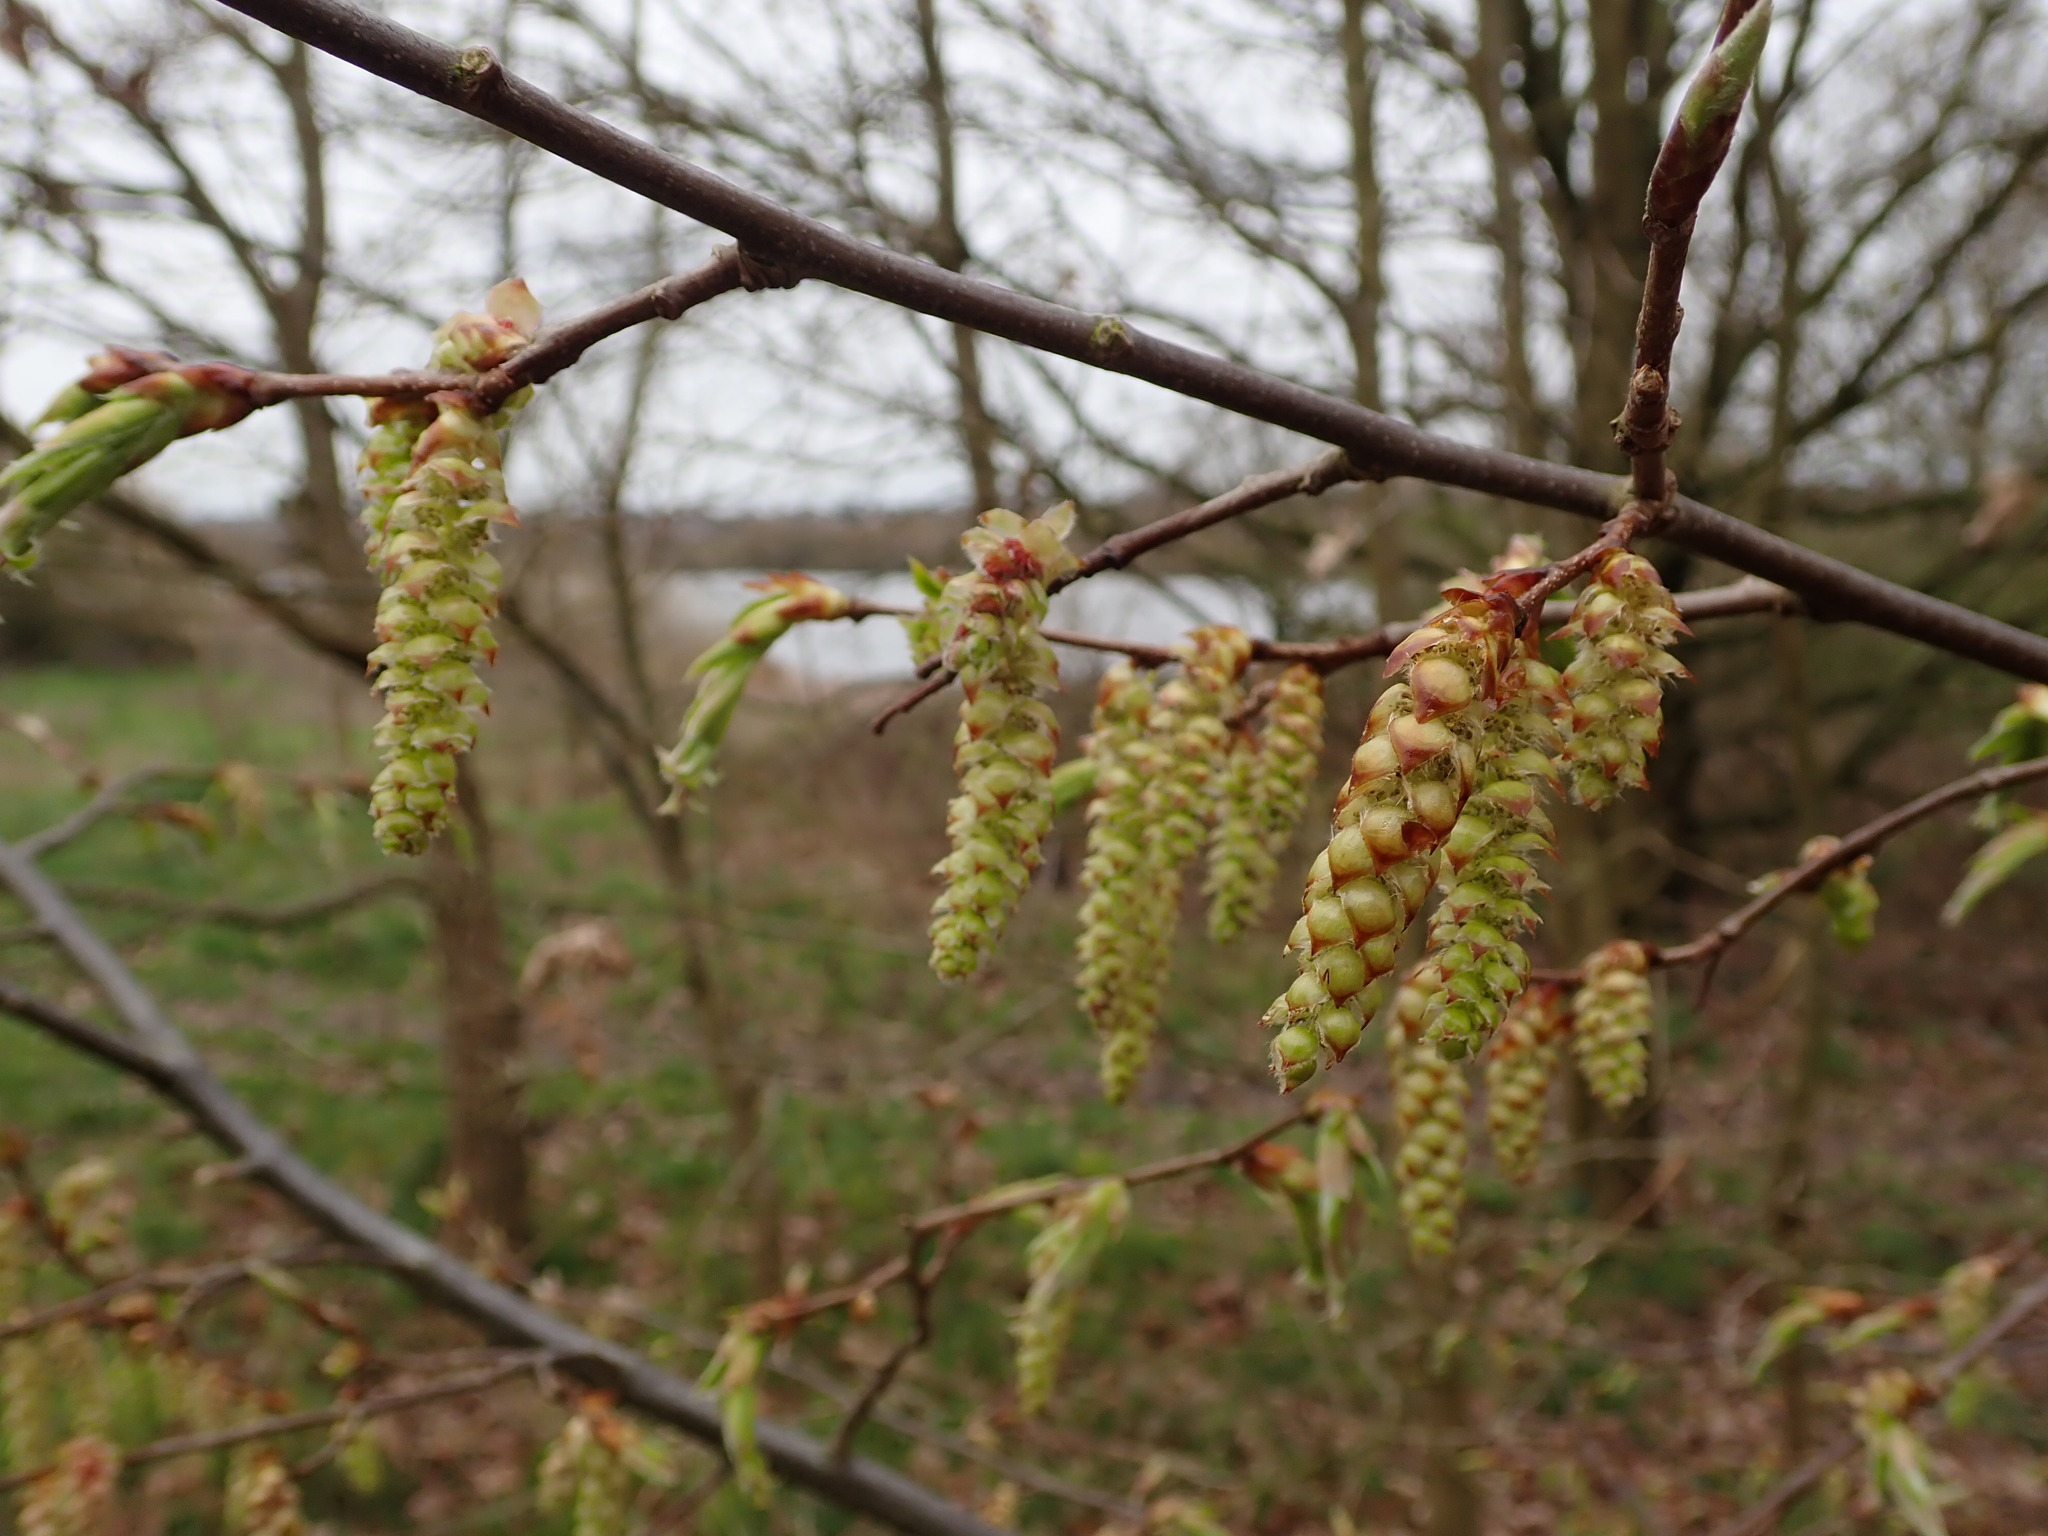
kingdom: Plantae
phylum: Tracheophyta
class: Magnoliopsida
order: Fagales
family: Betulaceae
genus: Carpinus
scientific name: Carpinus betulus
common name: Hornbeam
